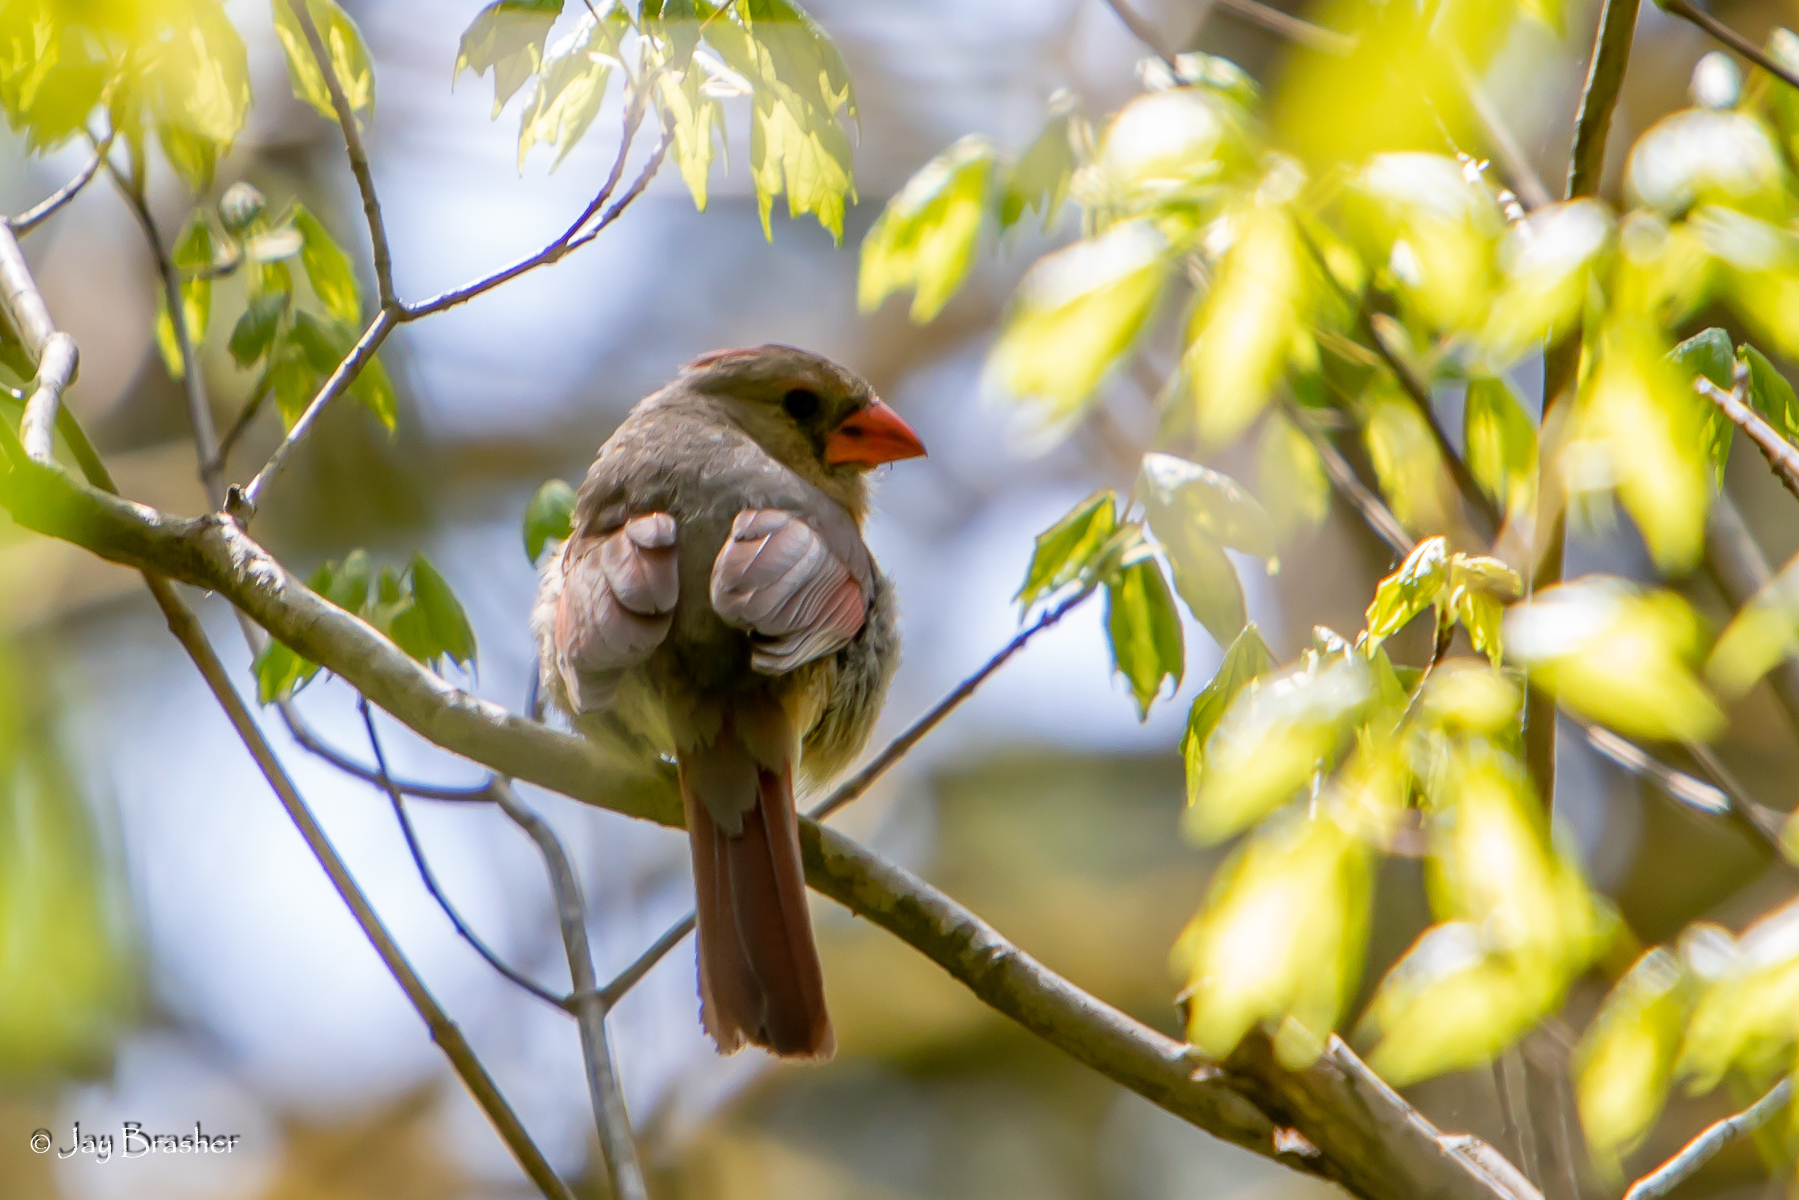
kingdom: Animalia
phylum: Chordata
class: Aves
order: Passeriformes
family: Cardinalidae
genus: Cardinalis
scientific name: Cardinalis cardinalis
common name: Northern cardinal
